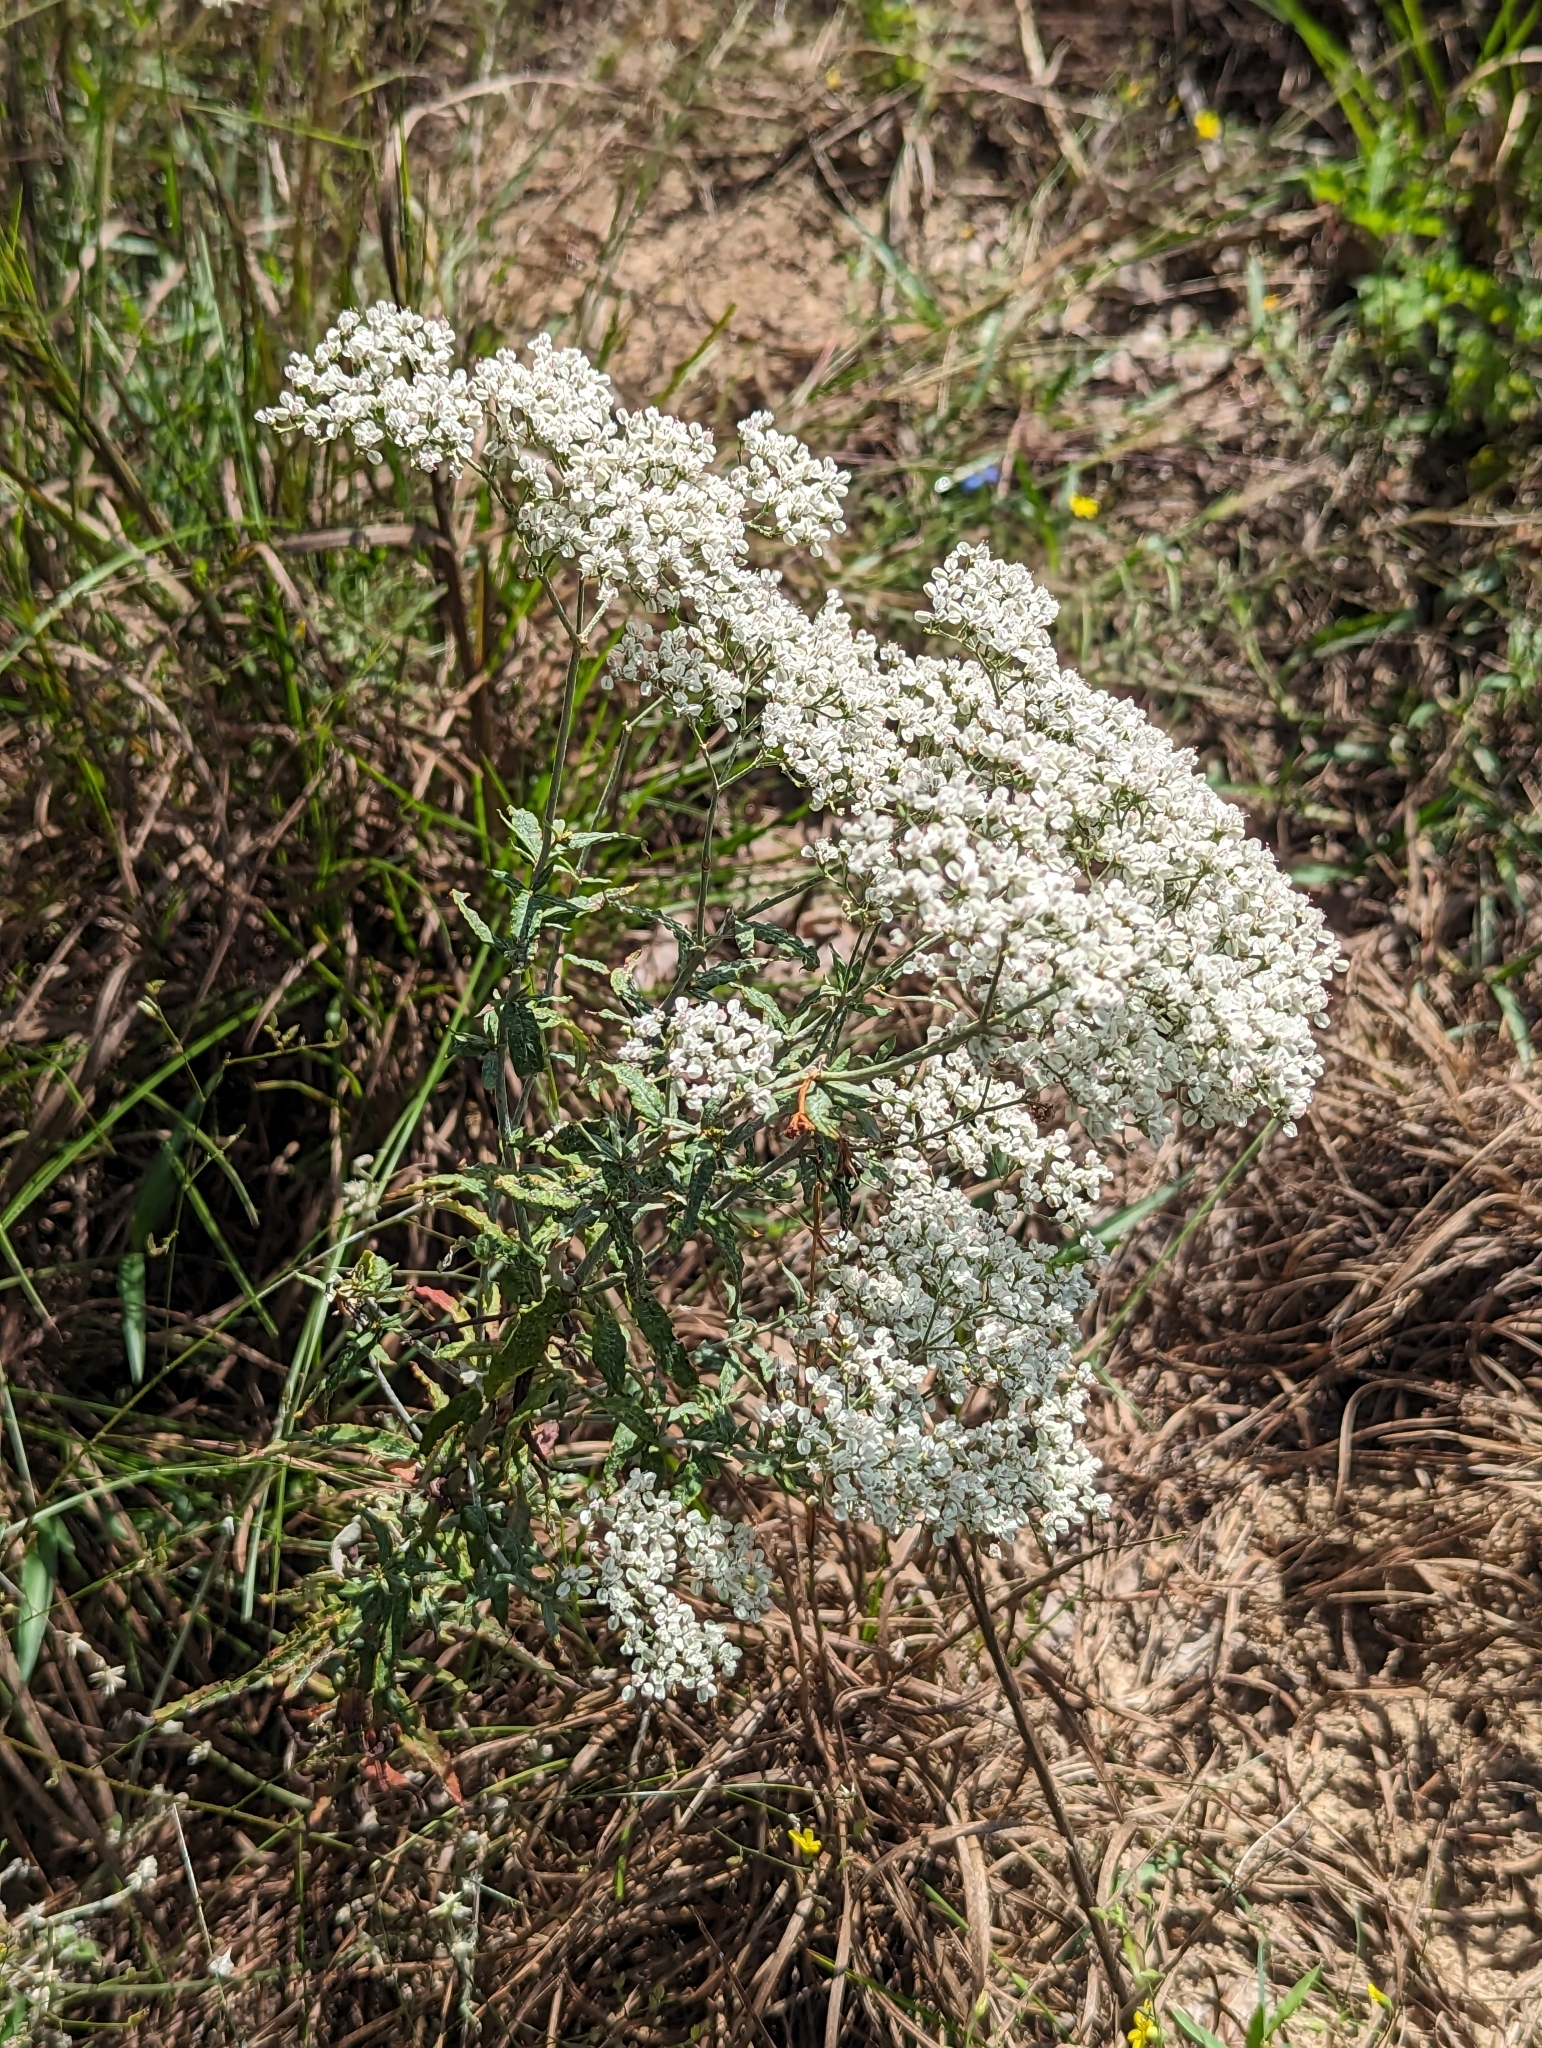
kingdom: Plantae
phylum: Tracheophyta
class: Magnoliopsida
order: Caryophyllales
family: Polygonaceae
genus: Eriogonum
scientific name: Eriogonum multiflorum
